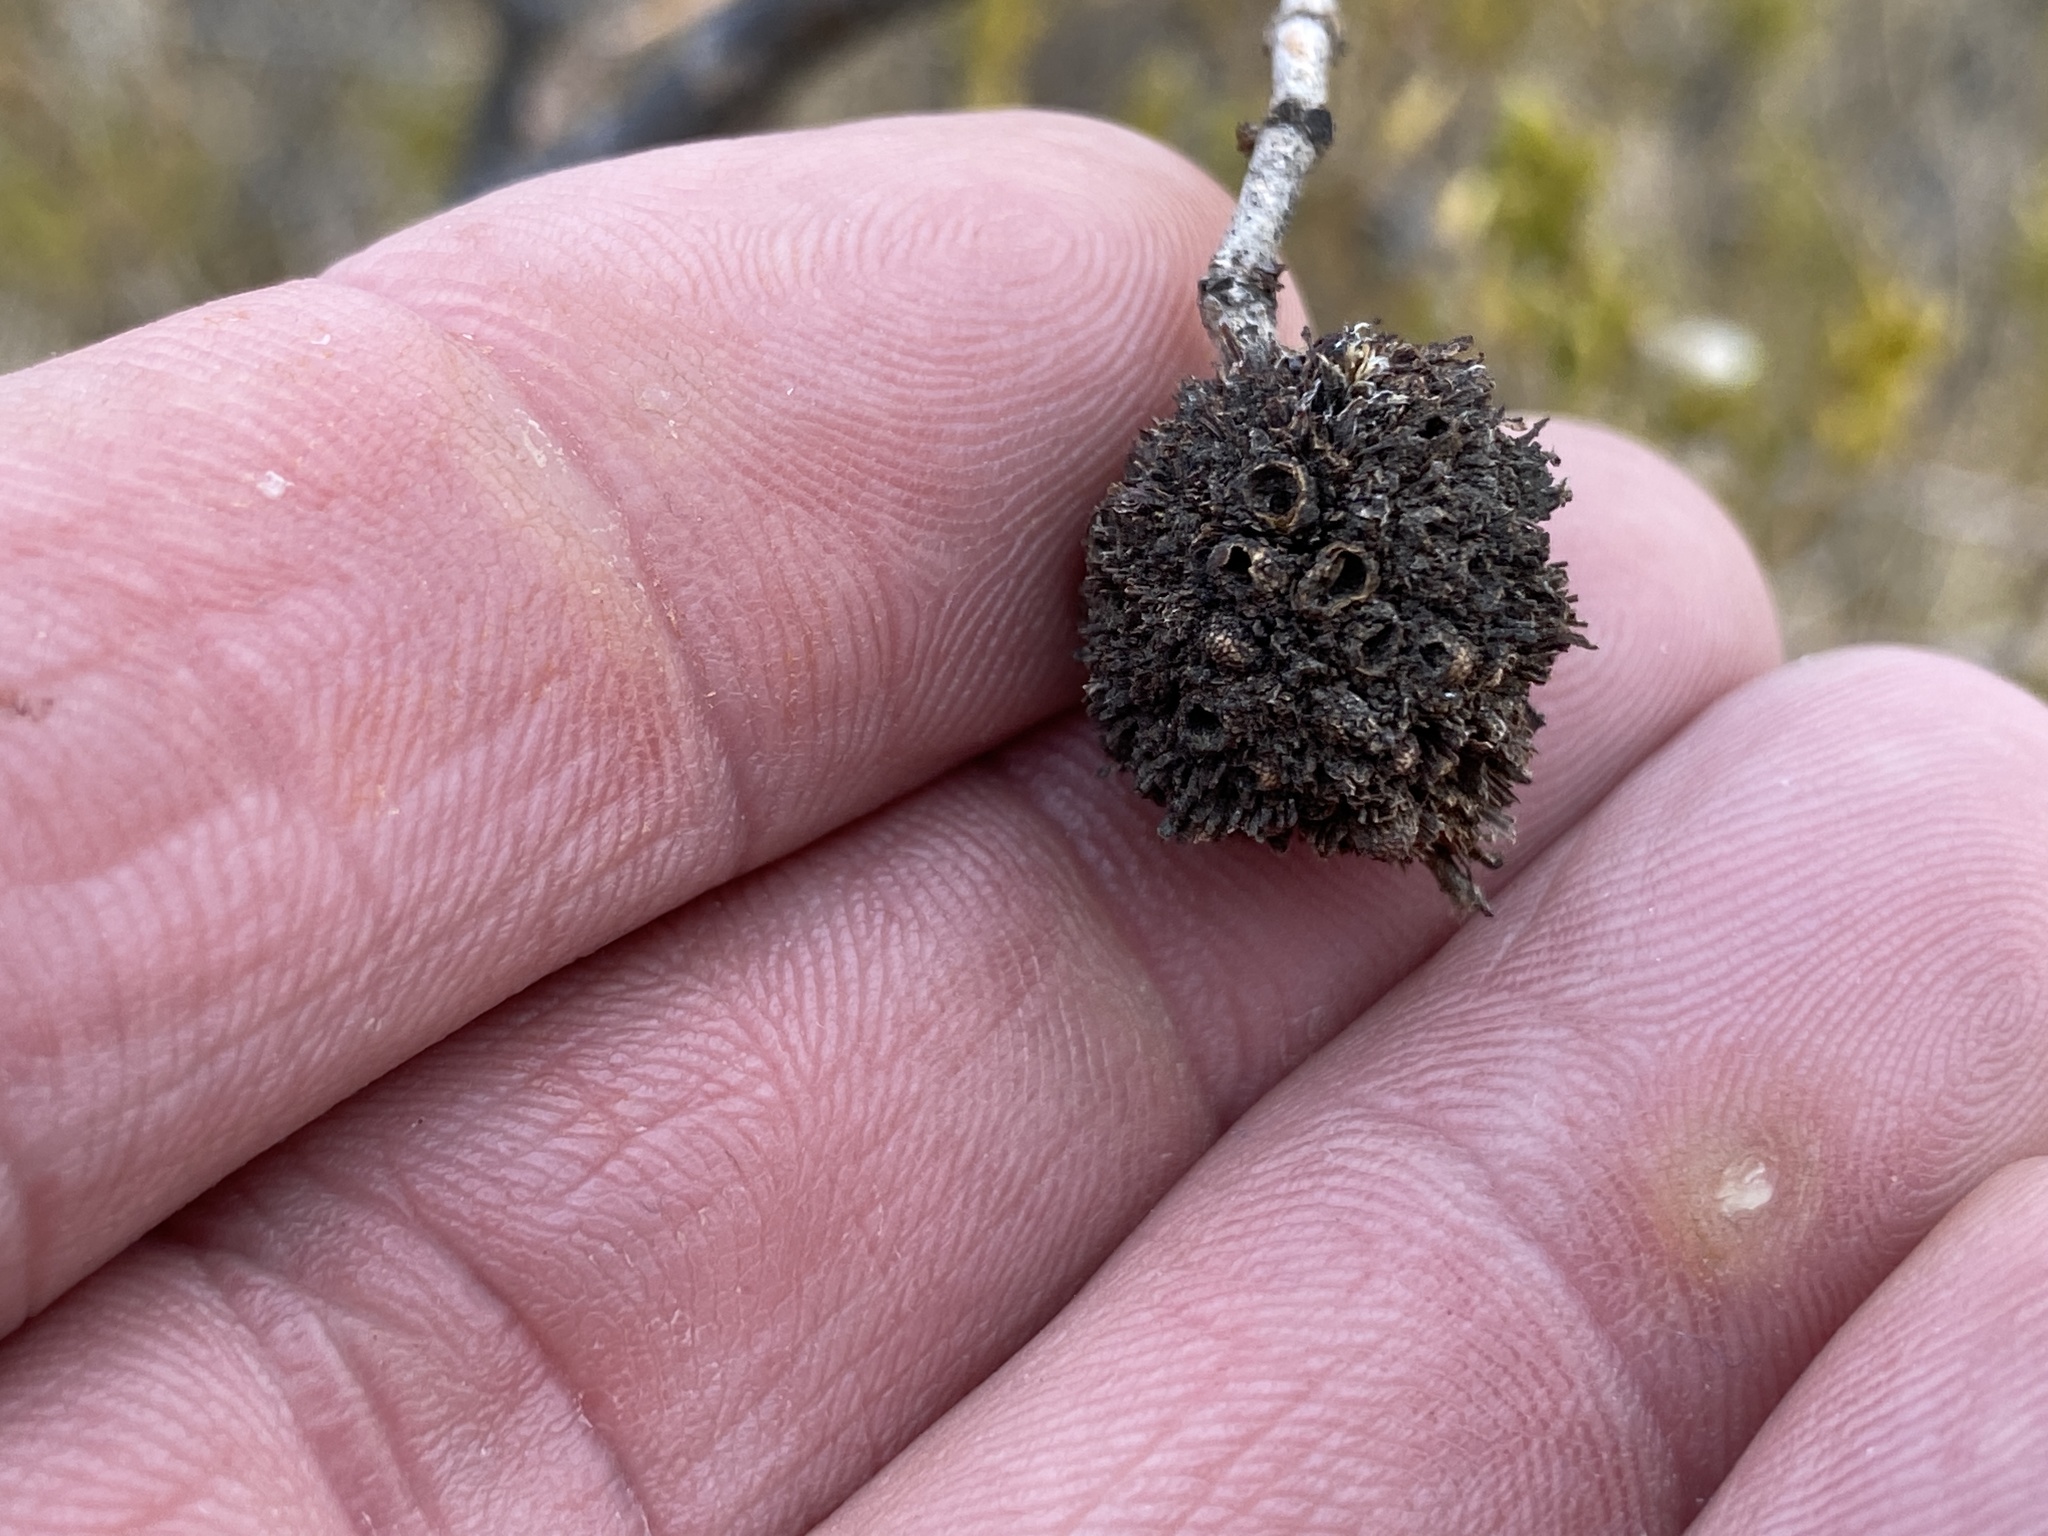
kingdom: Animalia
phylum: Arthropoda
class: Insecta
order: Diptera
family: Cecidomyiidae
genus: Asphondylia
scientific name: Asphondylia auripila
